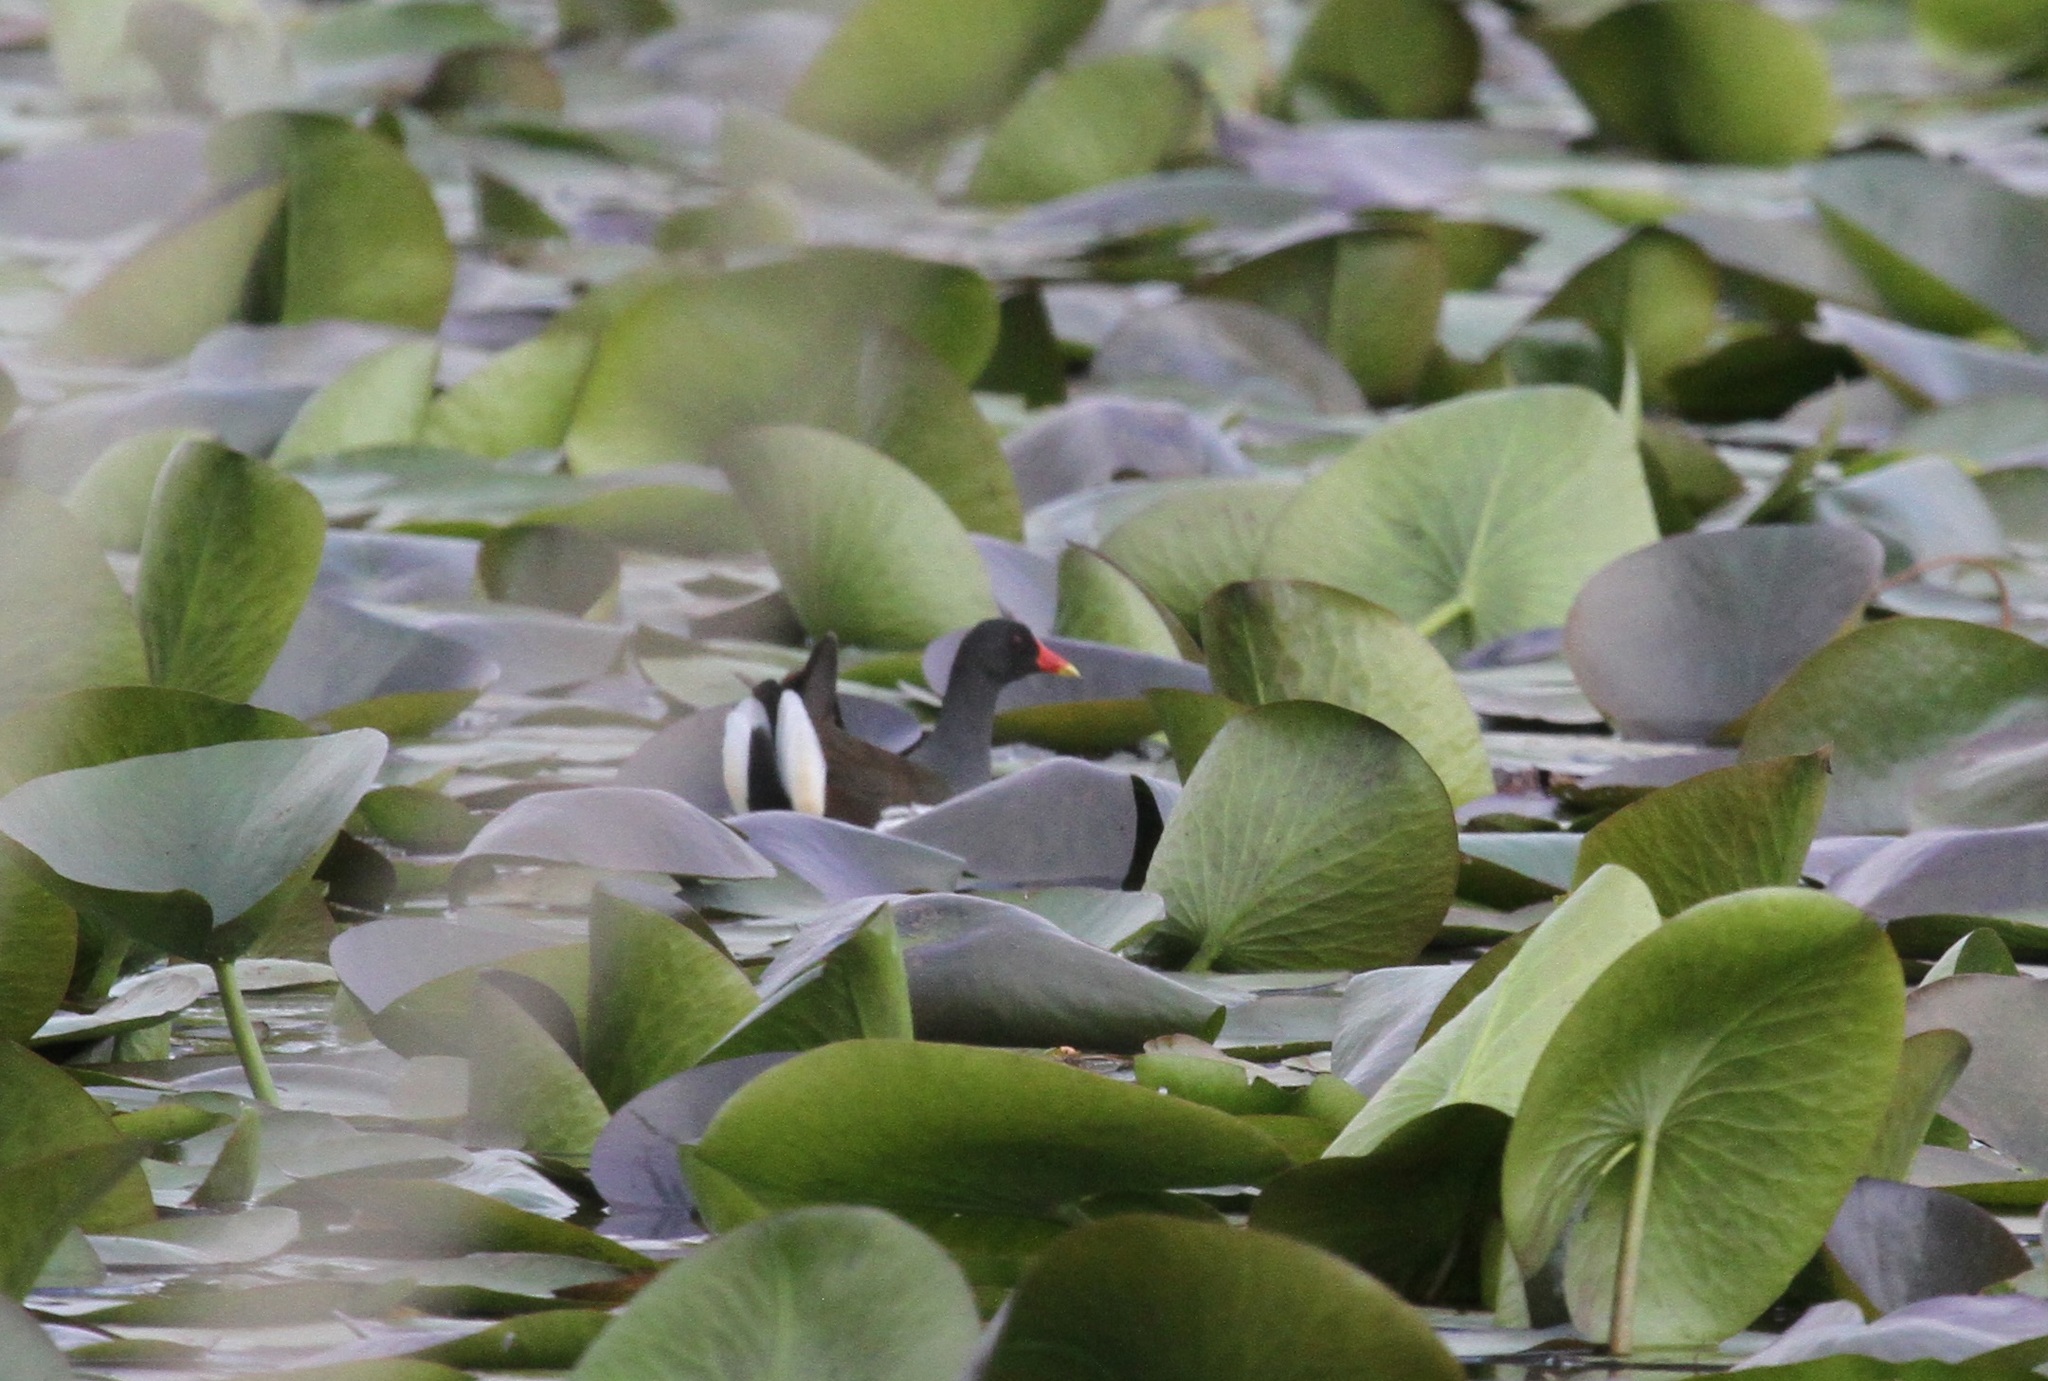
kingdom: Animalia
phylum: Chordata
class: Aves
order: Gruiformes
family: Rallidae
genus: Gallinula
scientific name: Gallinula chloropus
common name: Common moorhen
